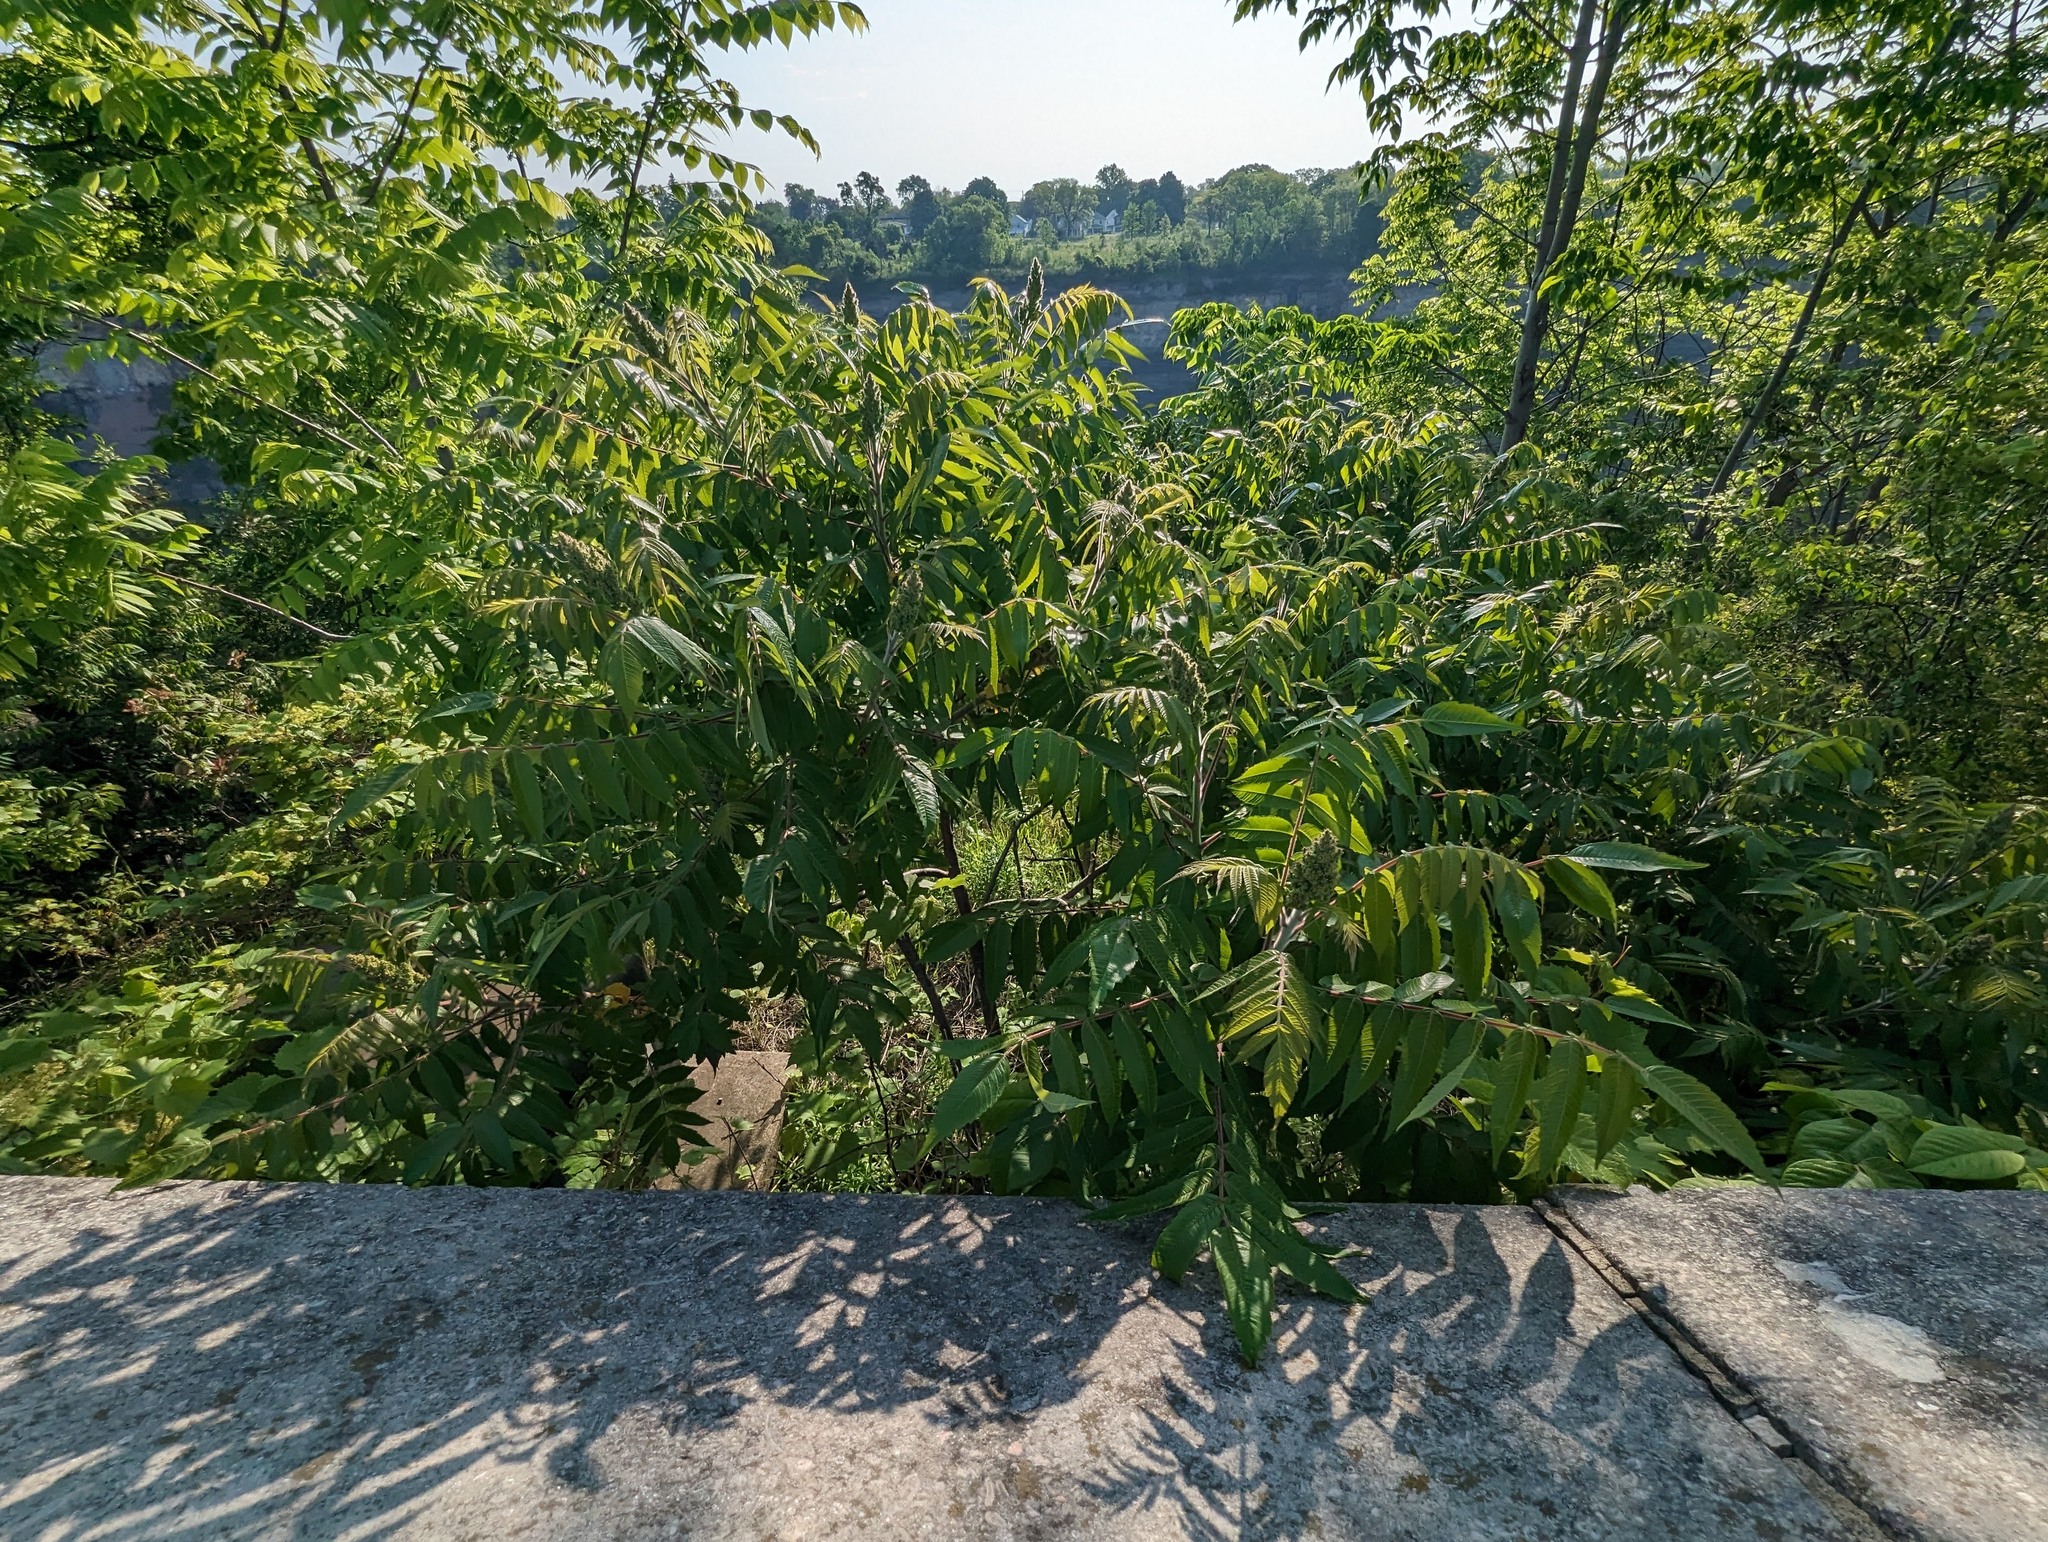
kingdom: Plantae
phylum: Tracheophyta
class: Magnoliopsida
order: Sapindales
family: Anacardiaceae
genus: Rhus
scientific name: Rhus typhina
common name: Staghorn sumac
